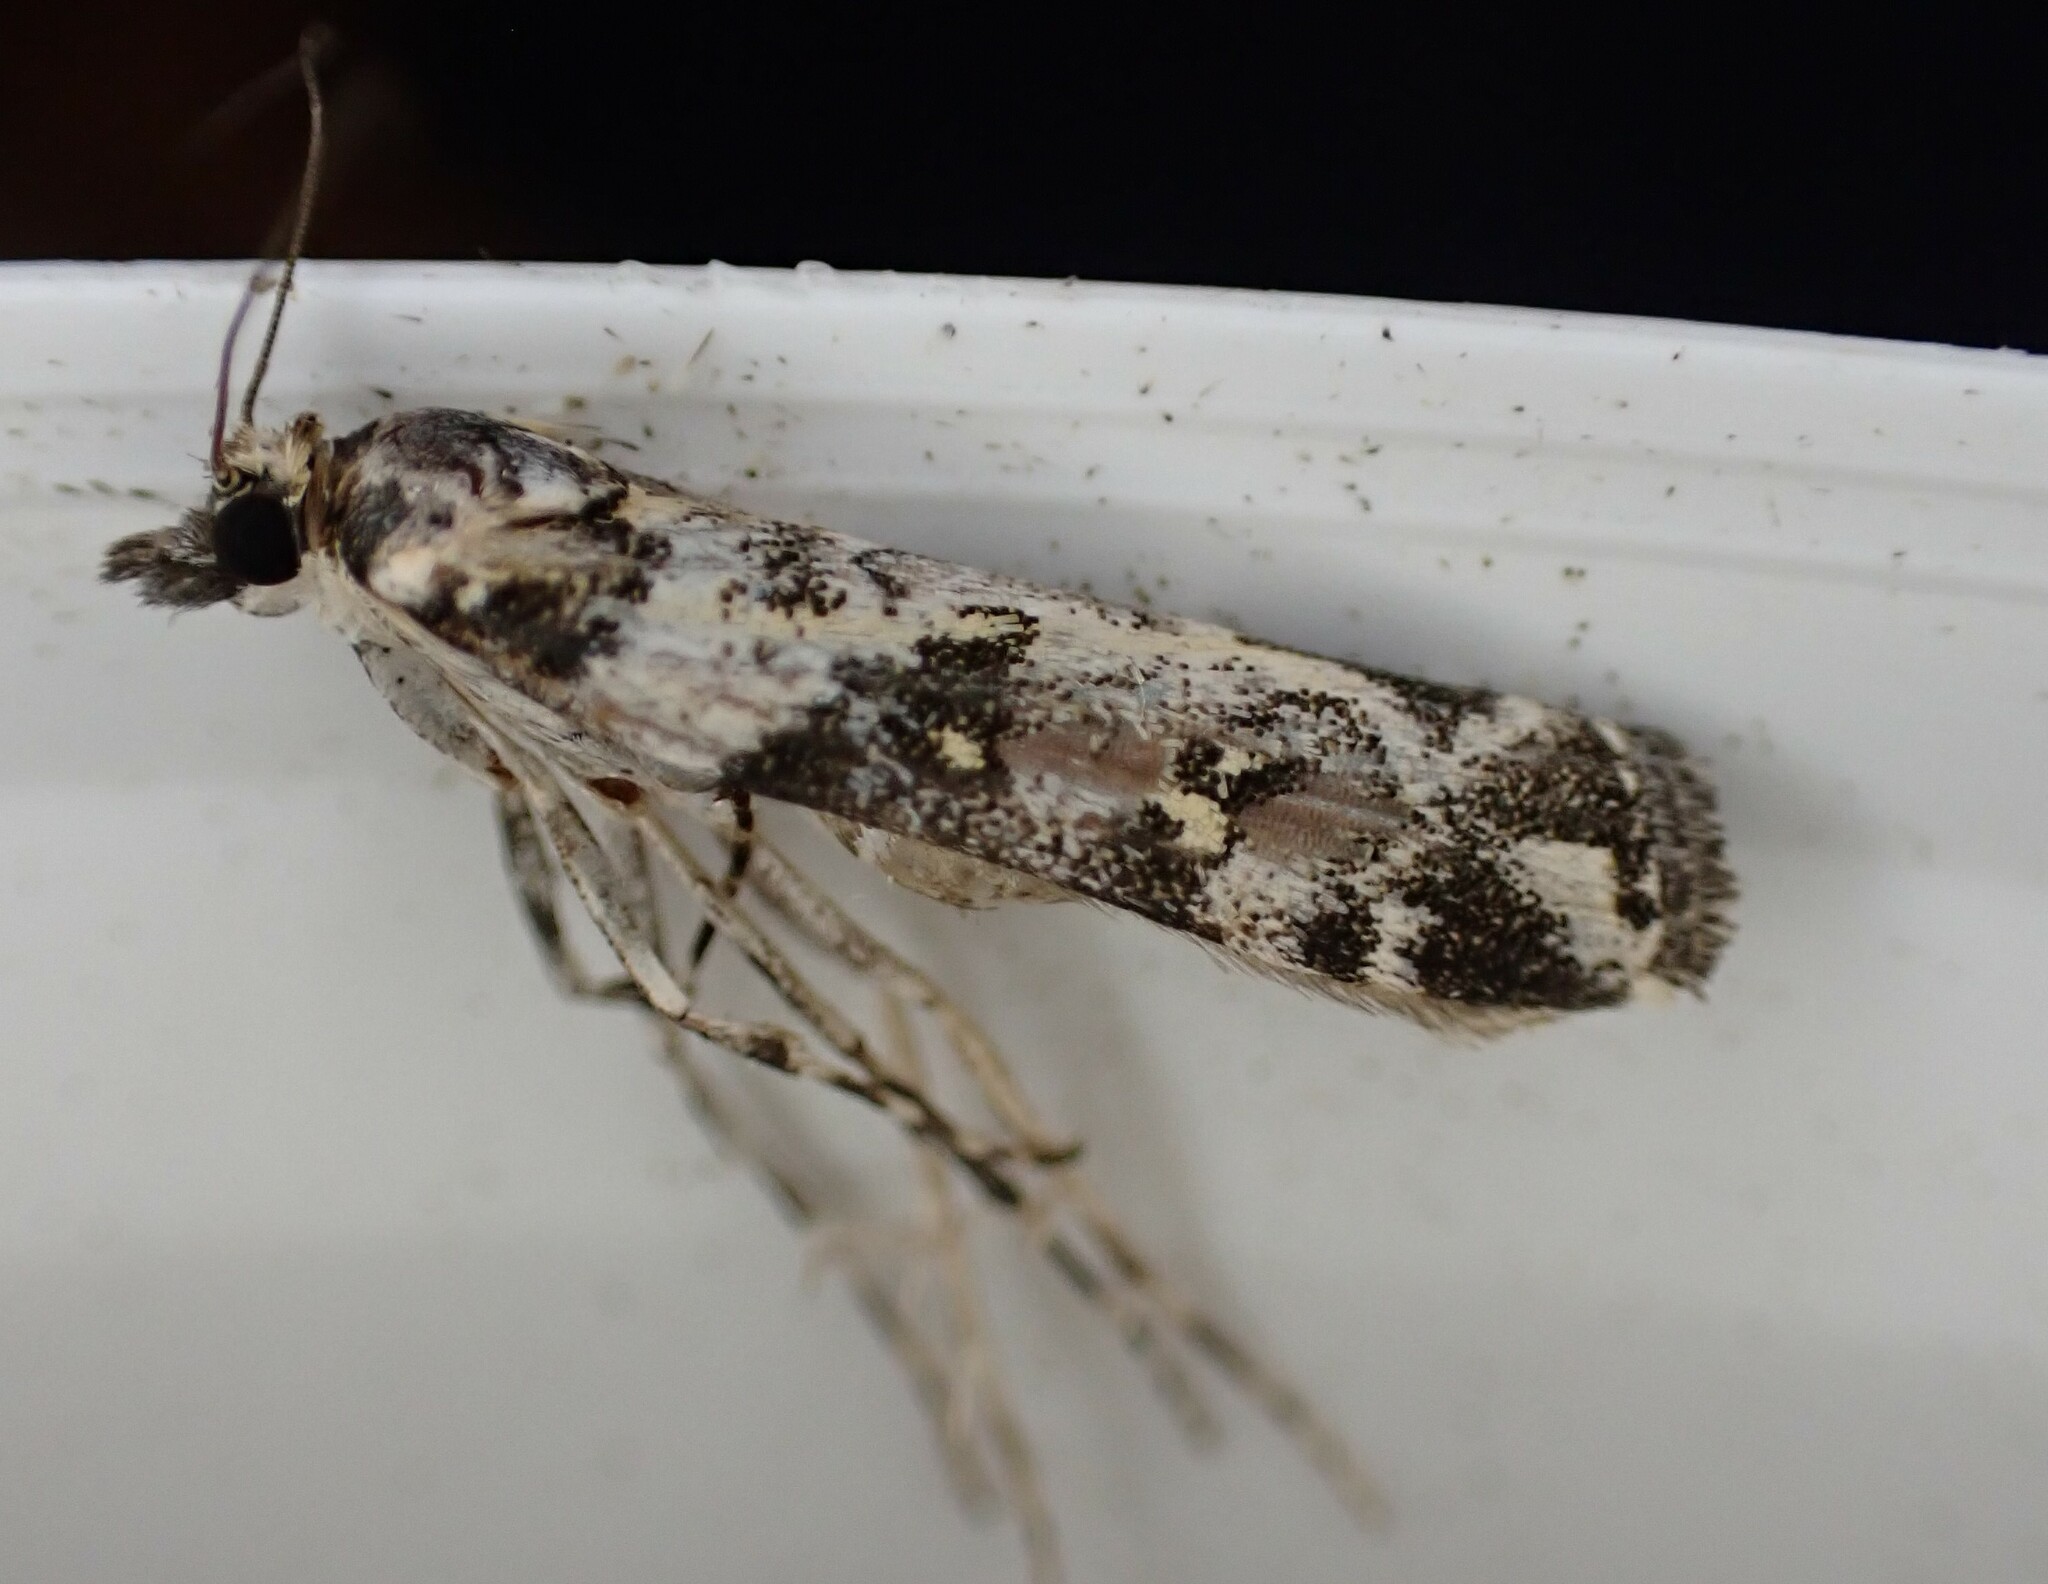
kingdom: Animalia
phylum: Arthropoda
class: Insecta
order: Lepidoptera
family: Crambidae
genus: Eudonia
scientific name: Eudonia diphtheralis
